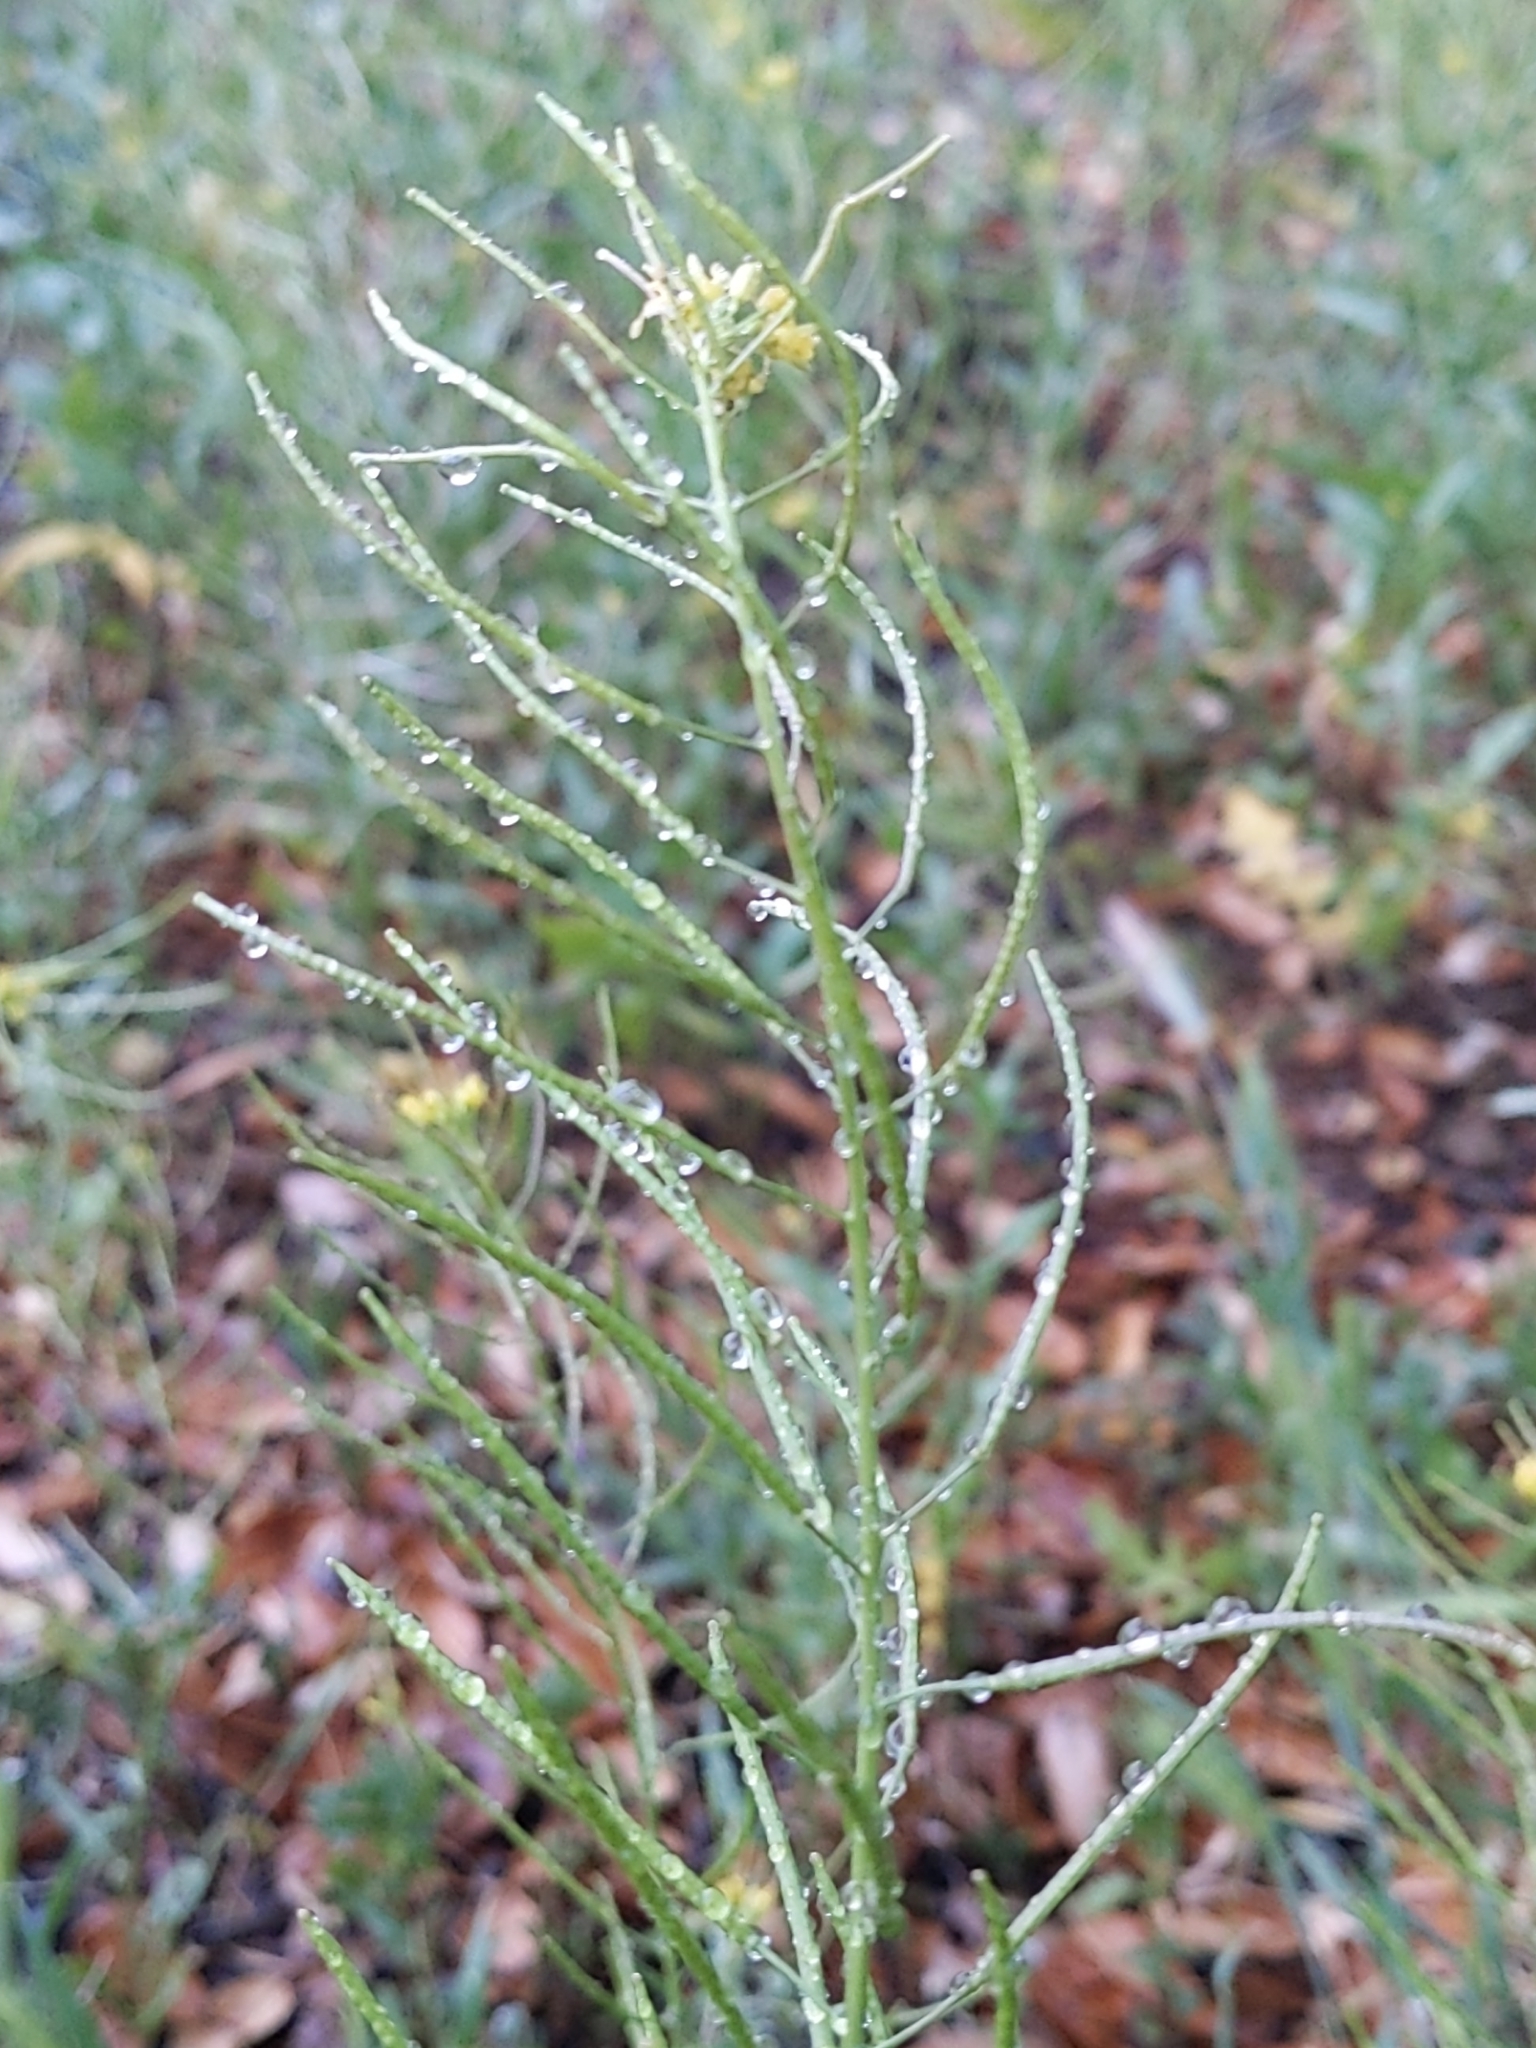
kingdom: Plantae
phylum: Tracheophyta
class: Magnoliopsida
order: Brassicales
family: Brassicaceae
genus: Sisymbrium
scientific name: Sisymbrium irio
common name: London rocket
